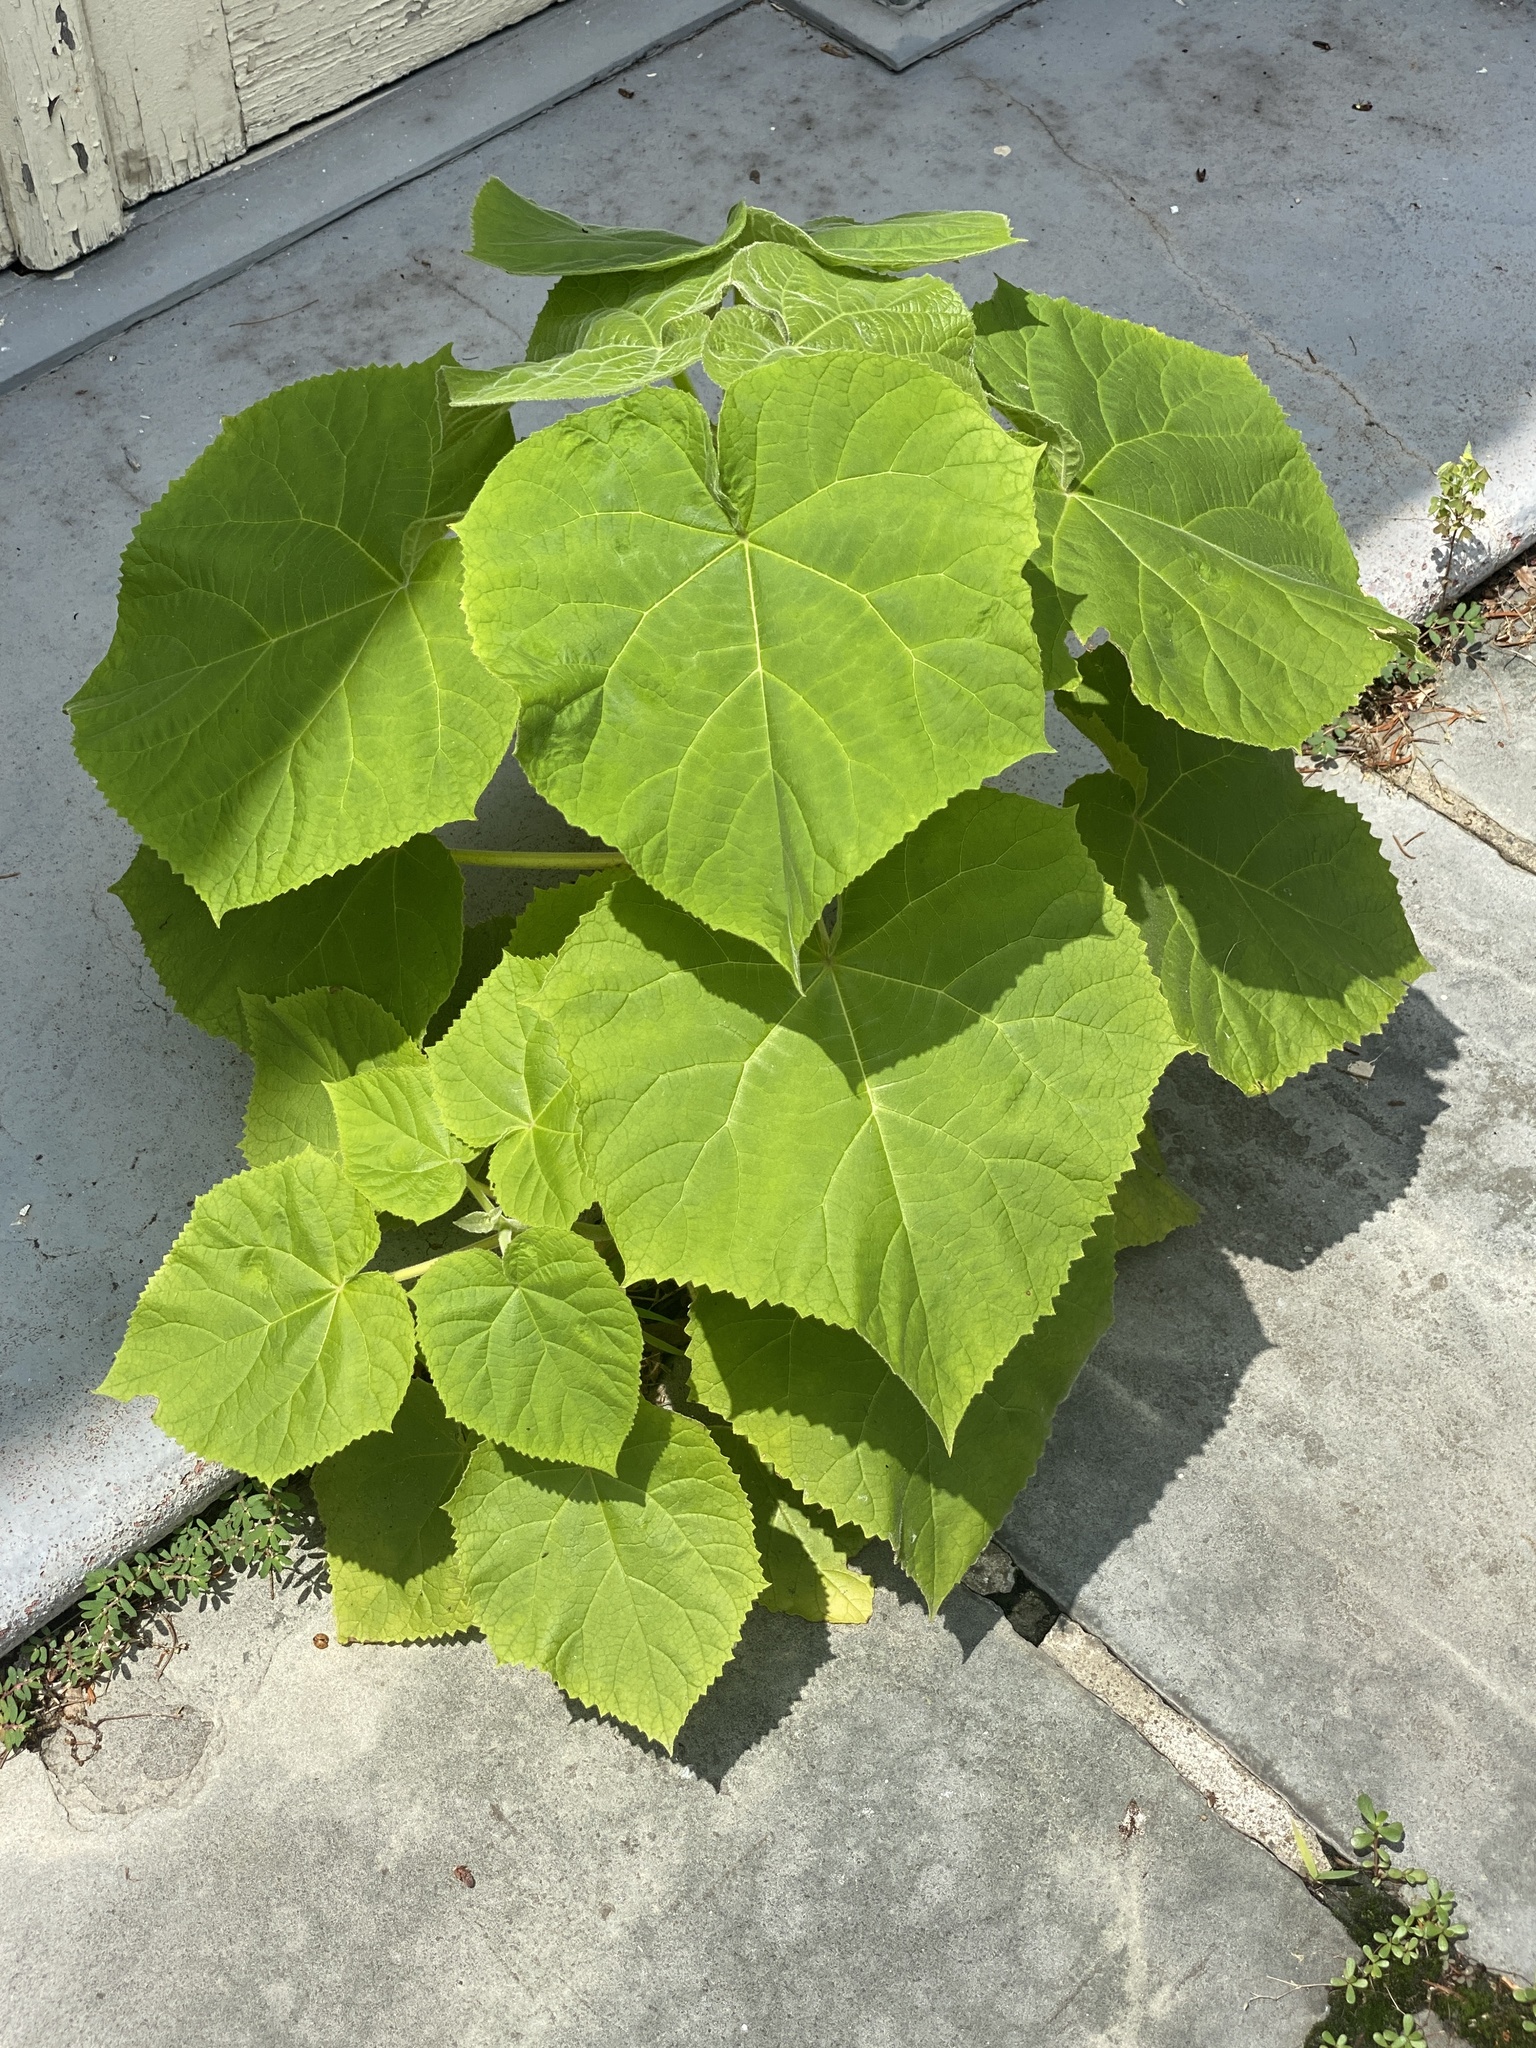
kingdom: Plantae
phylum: Tracheophyta
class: Magnoliopsida
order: Lamiales
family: Paulowniaceae
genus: Paulownia
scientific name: Paulownia tomentosa
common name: Foxglove-tree
